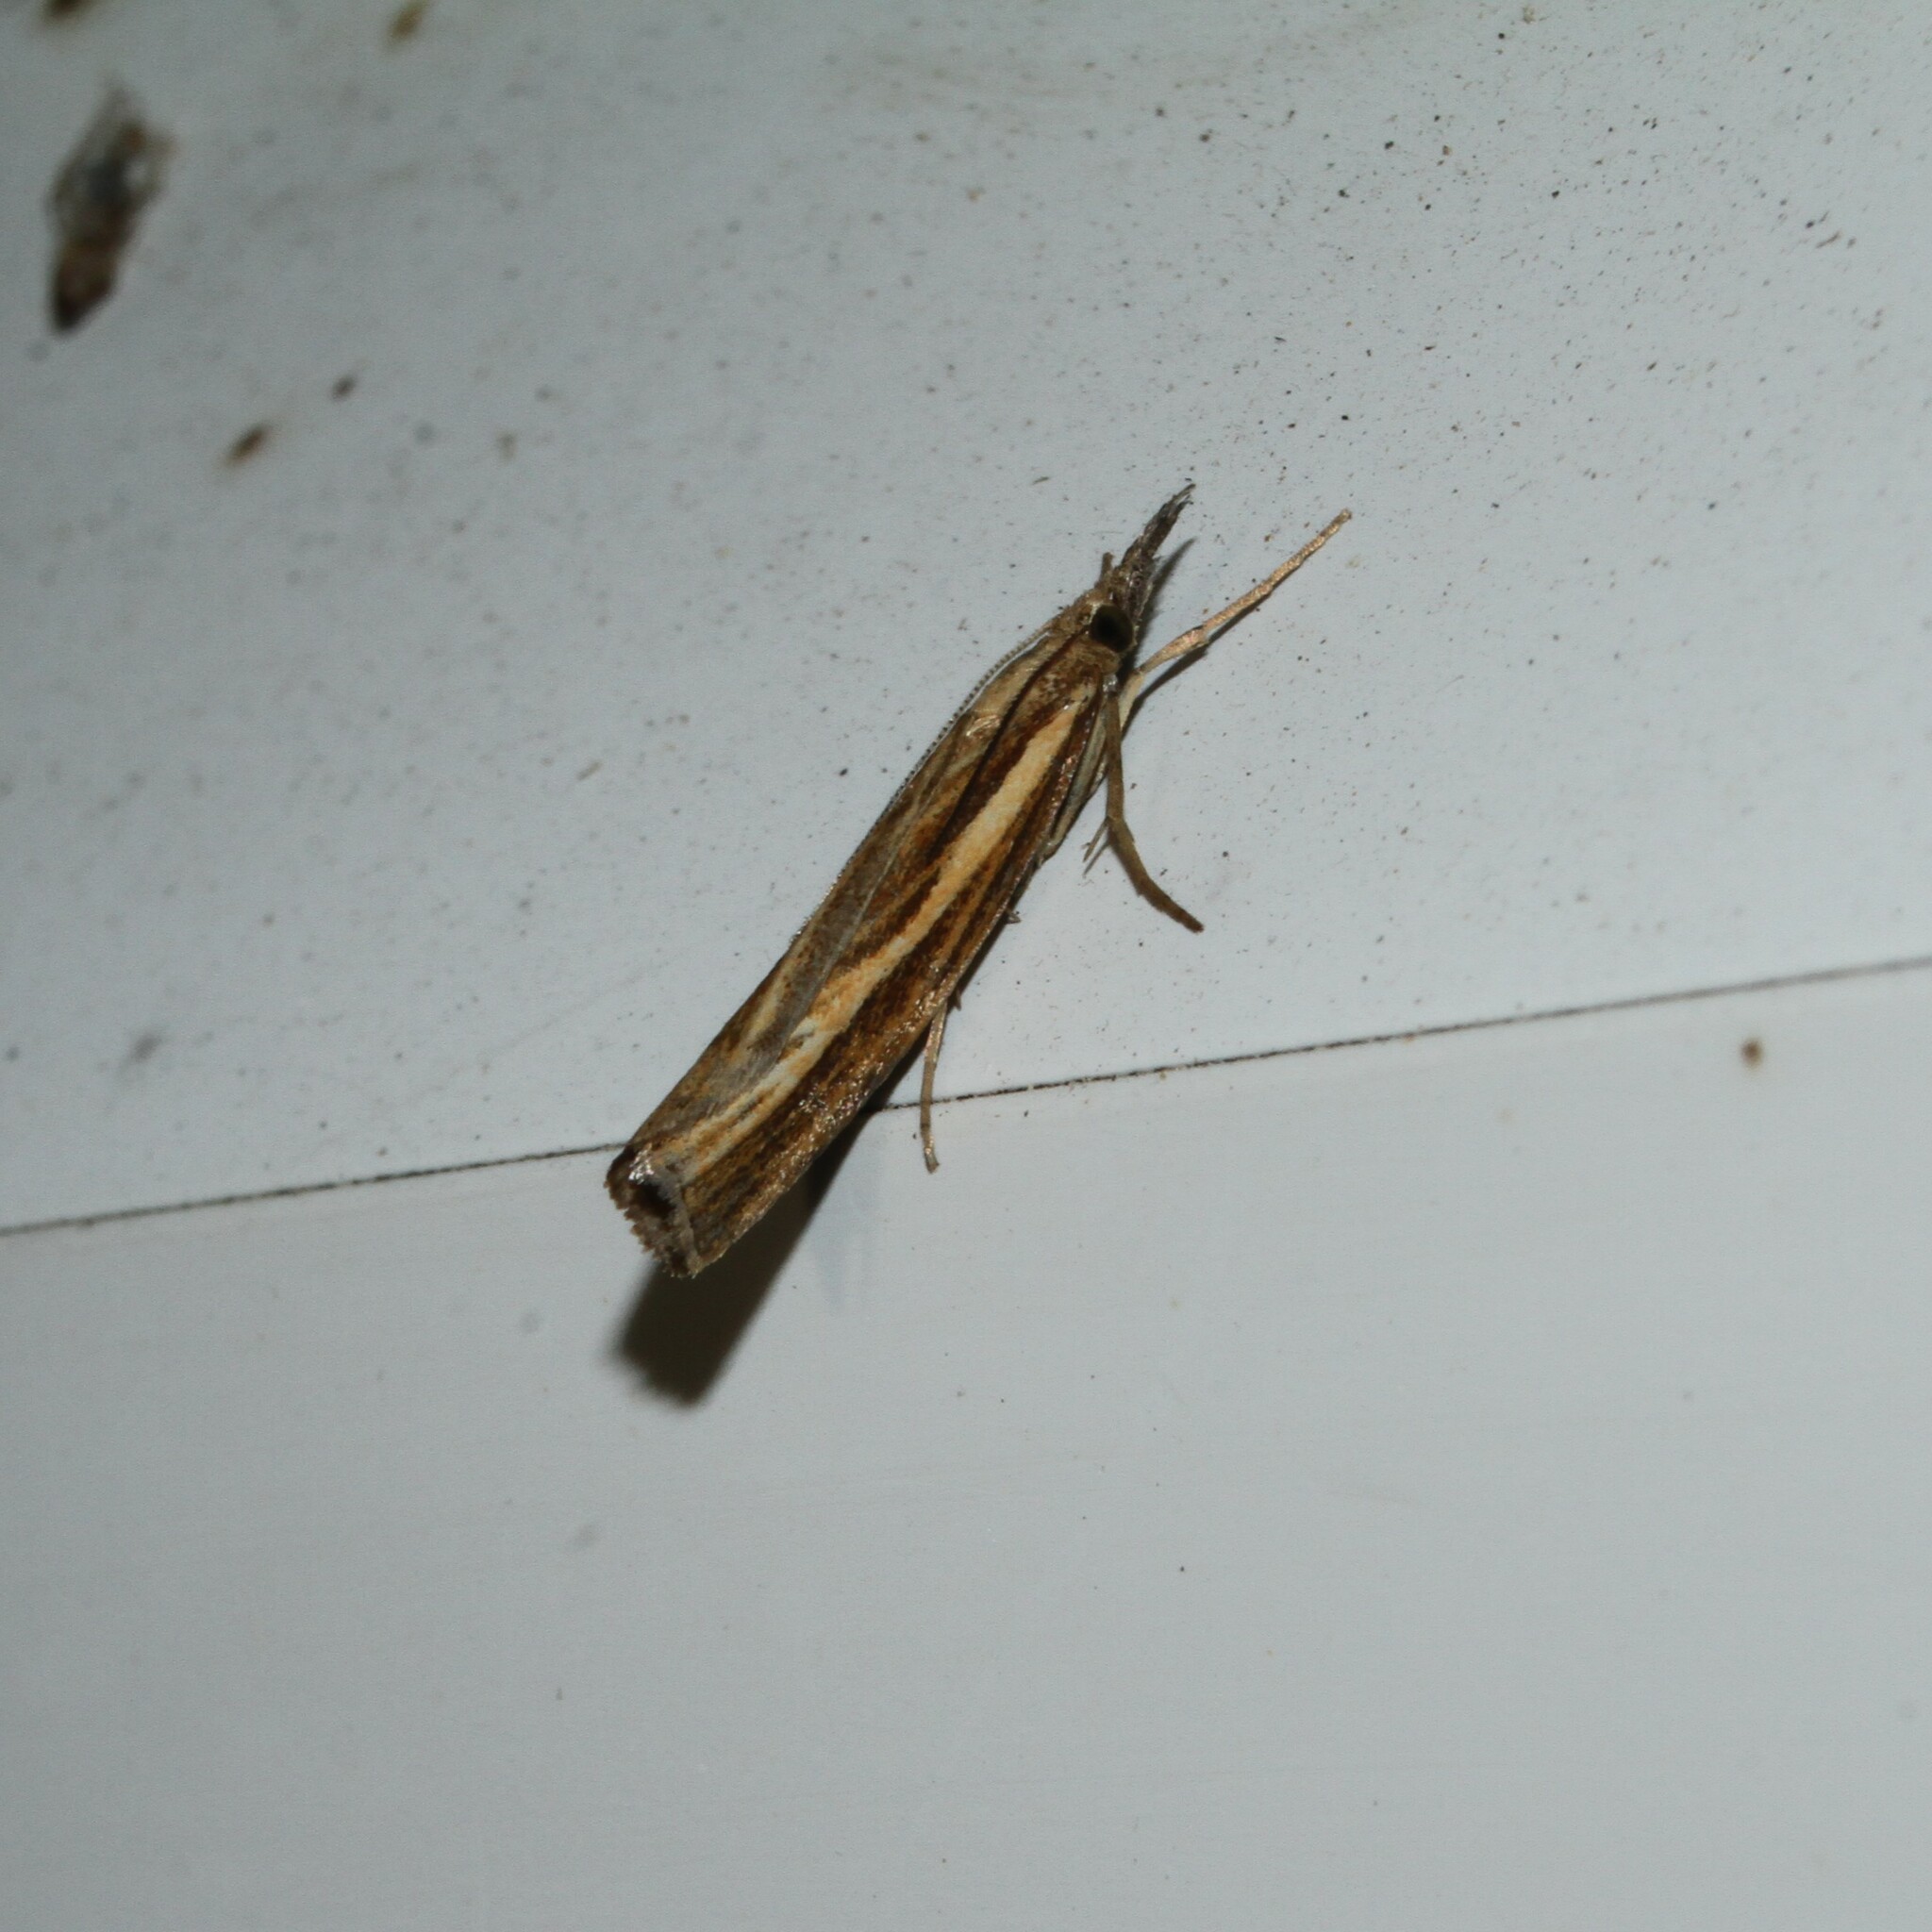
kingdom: Animalia
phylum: Arthropoda
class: Insecta
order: Lepidoptera
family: Crambidae
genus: Agriphila
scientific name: Agriphila tristellus
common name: Common grass-veneer
